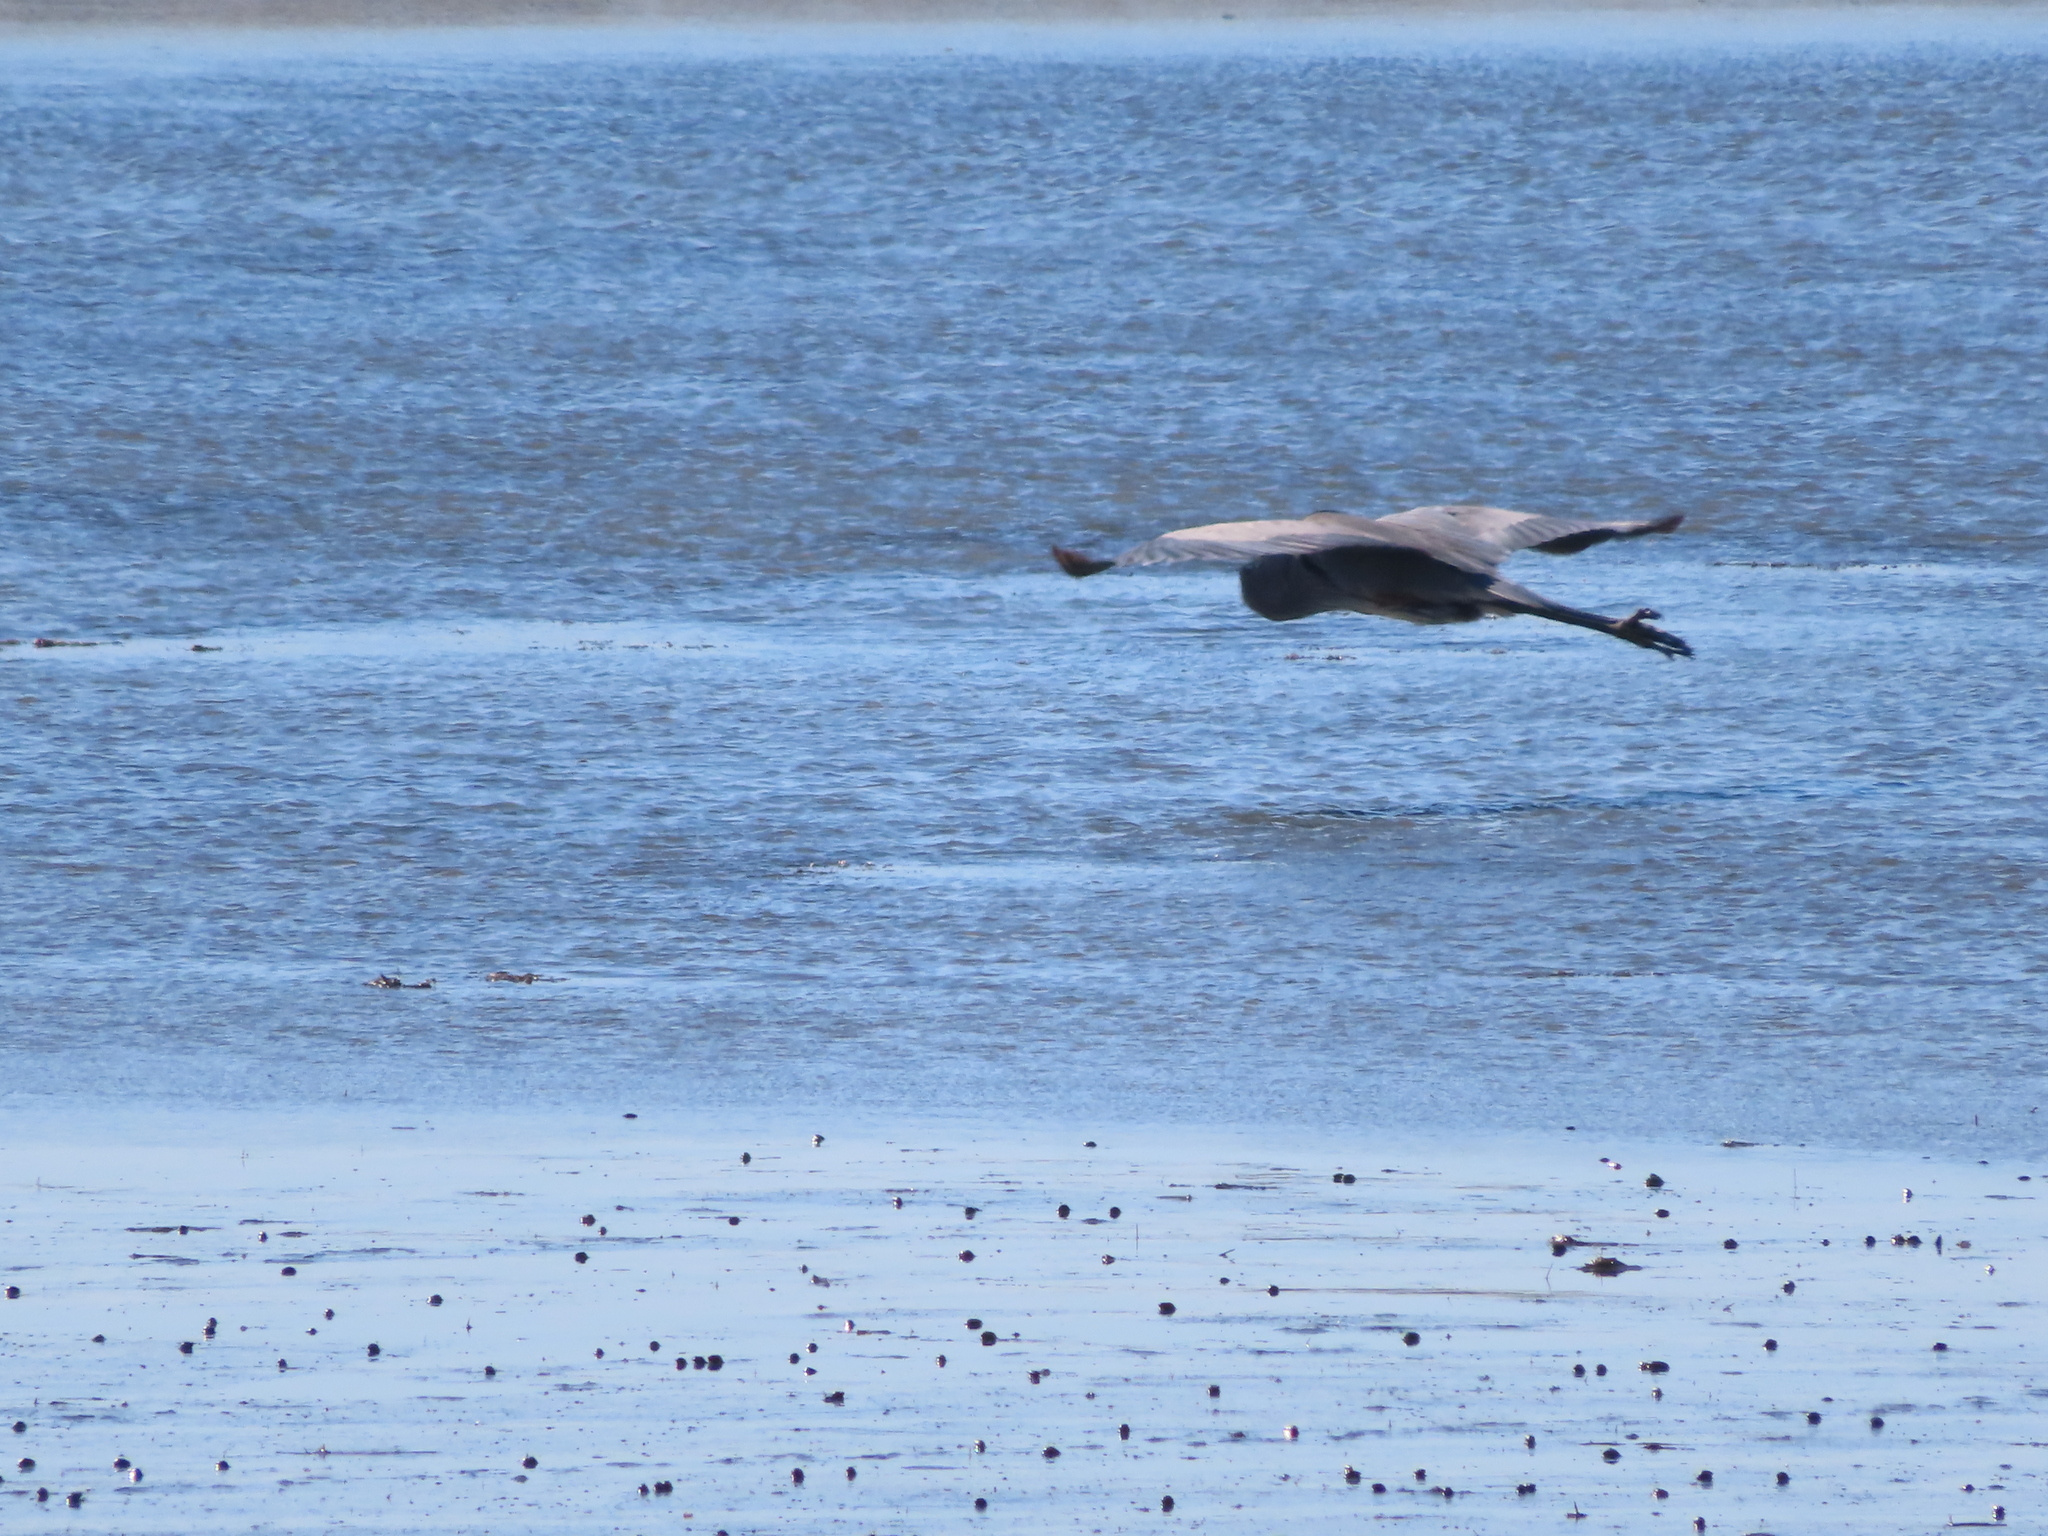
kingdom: Animalia
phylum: Chordata
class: Aves
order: Pelecaniformes
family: Ardeidae
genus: Ardea
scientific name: Ardea herodias
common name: Great blue heron
